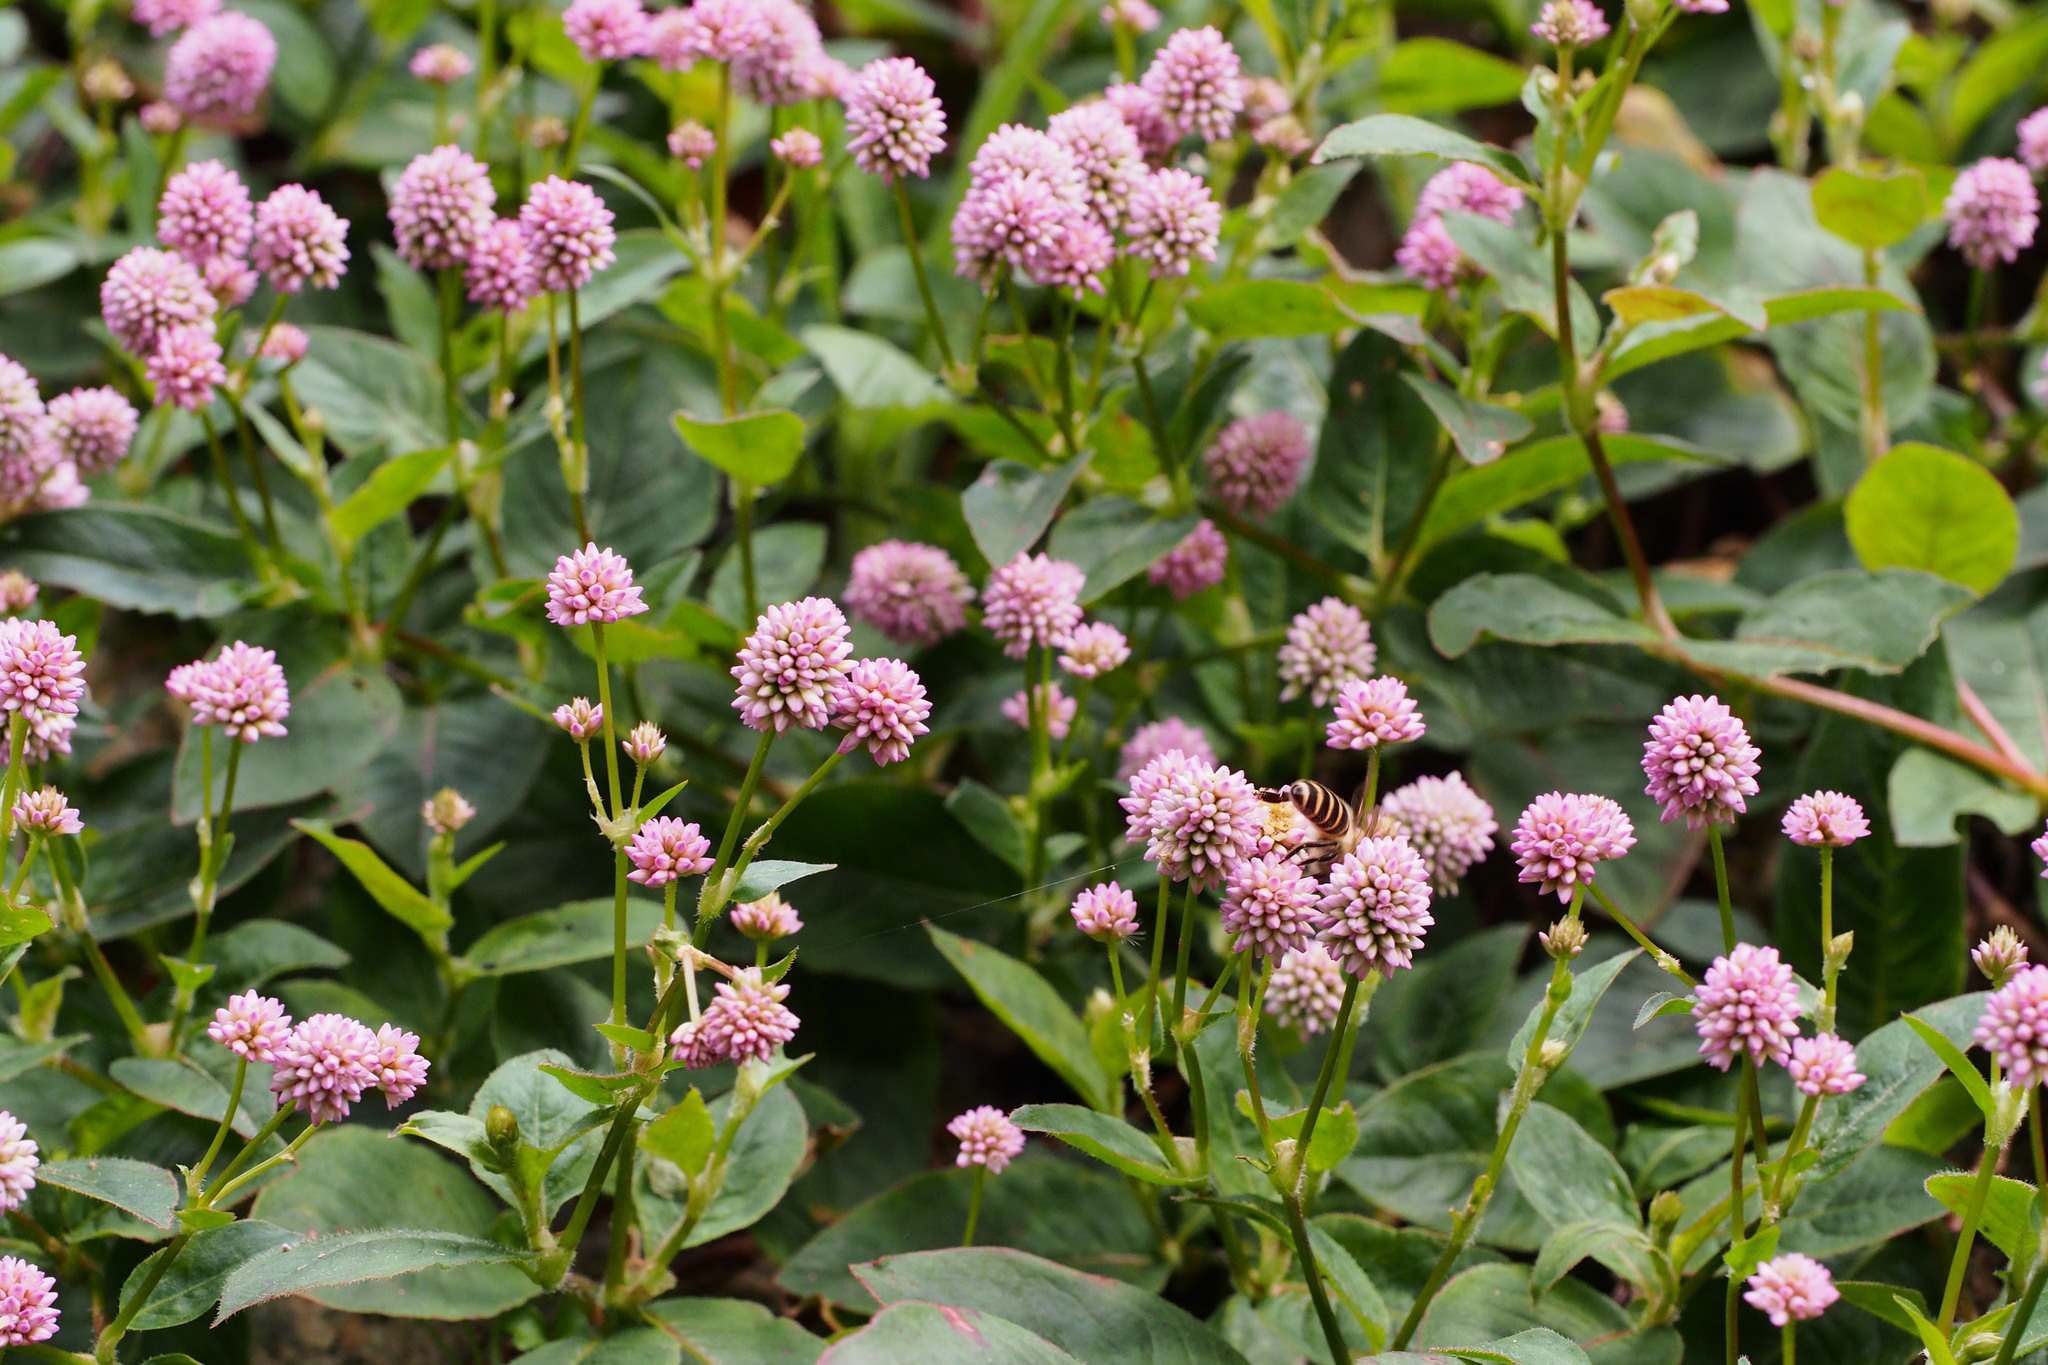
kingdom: Plantae
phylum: Tracheophyta
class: Magnoliopsida
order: Caryophyllales
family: Polygonaceae
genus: Persicaria
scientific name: Persicaria capitata
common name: Pinkhead smartweed
